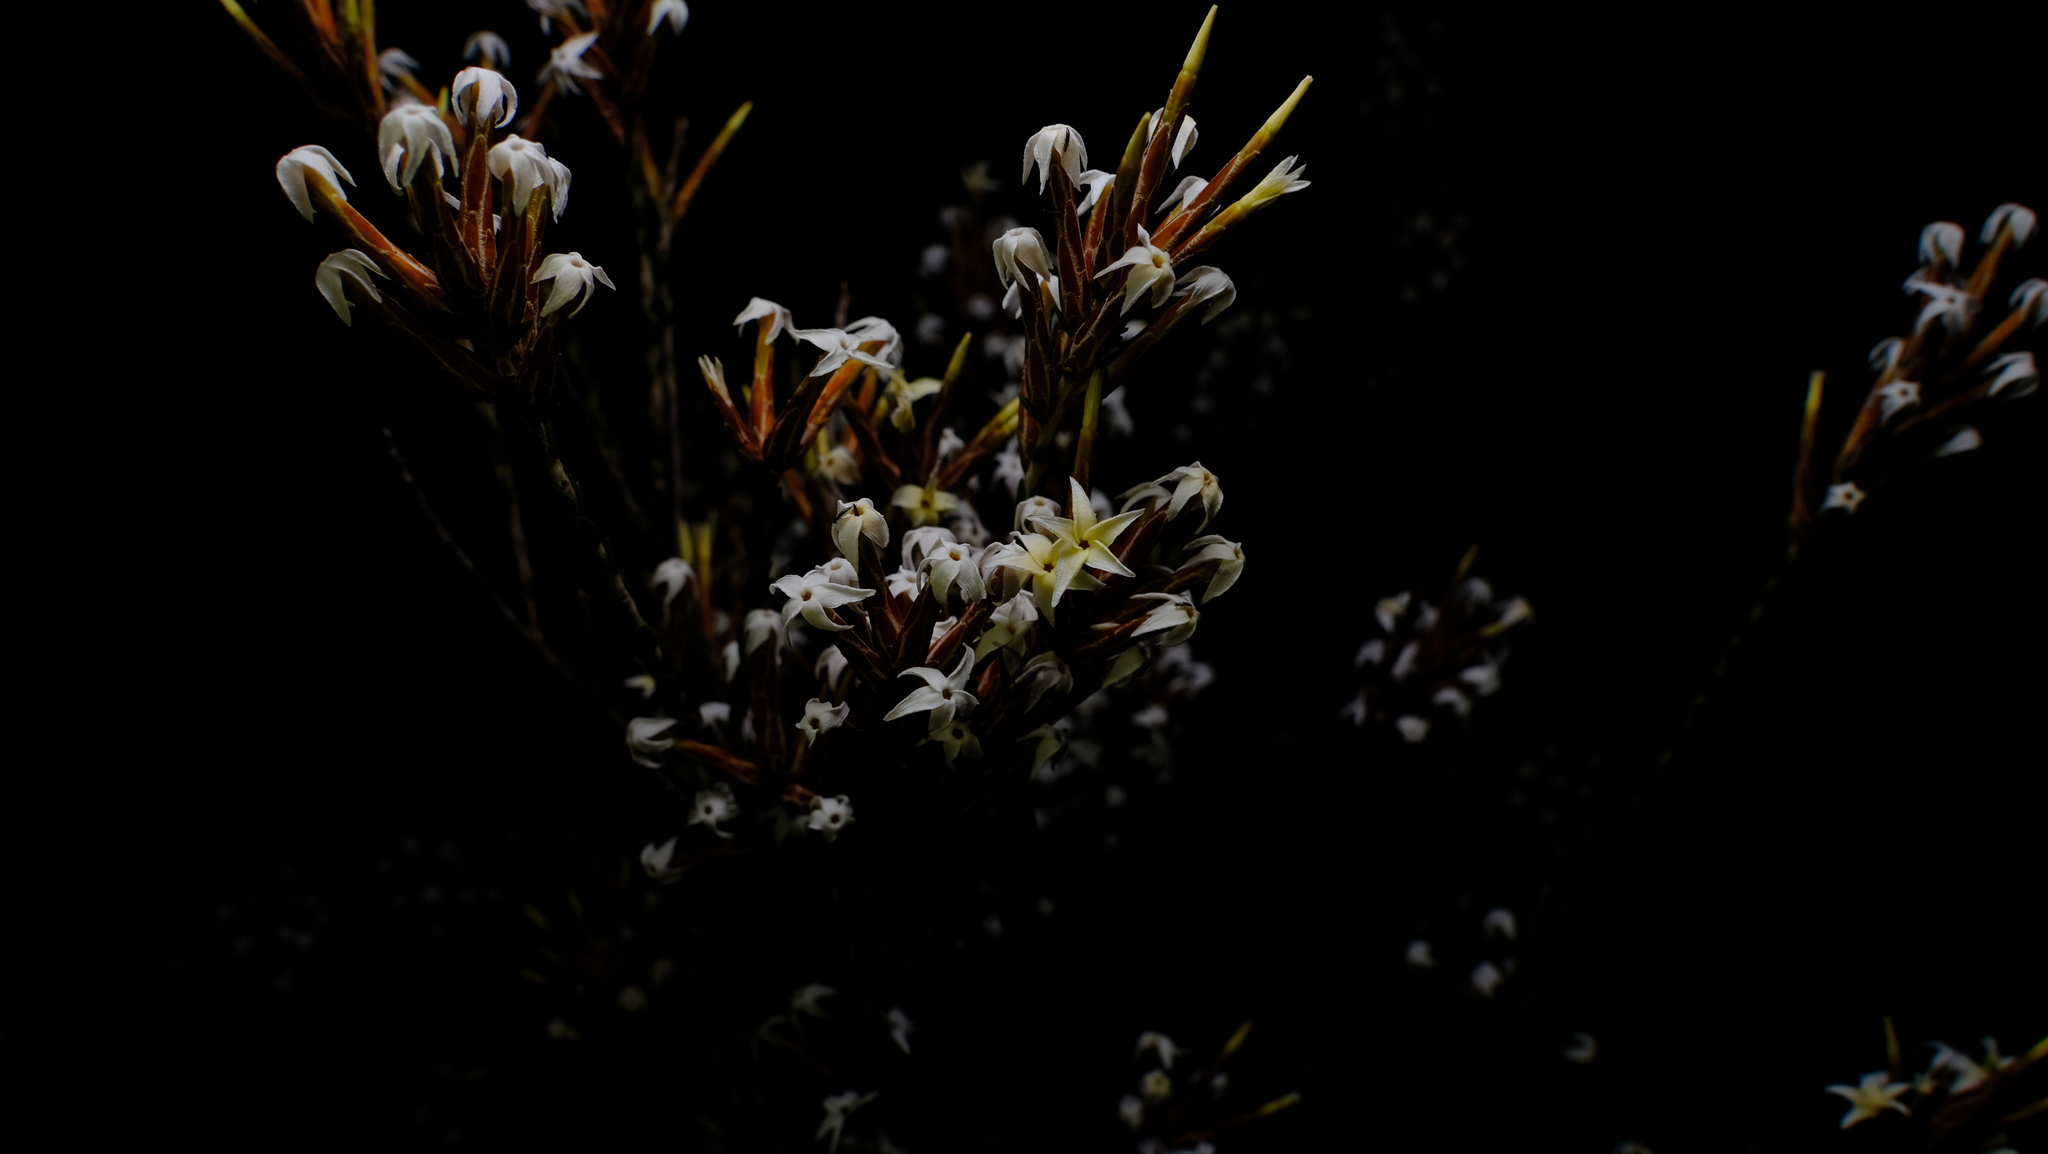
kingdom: Plantae
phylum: Tracheophyta
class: Magnoliopsida
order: Ericales
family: Ericaceae
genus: Lysinema
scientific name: Lysinema pentapetalum
